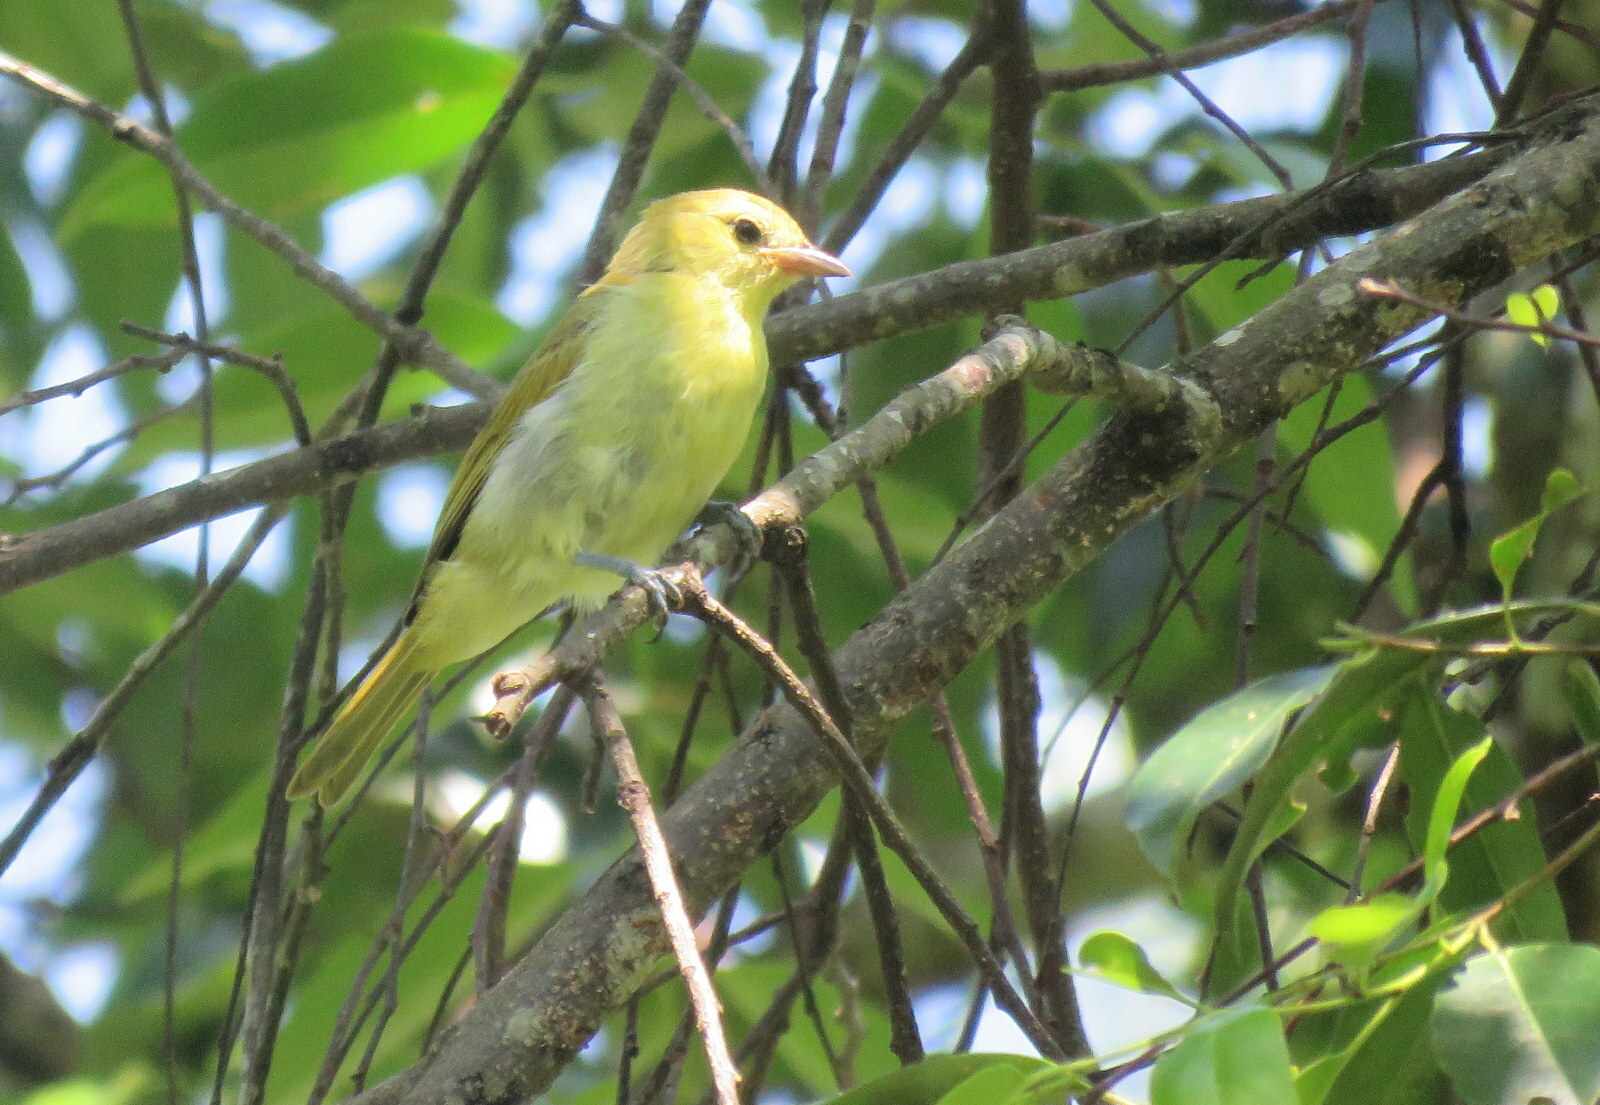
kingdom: Animalia
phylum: Chordata
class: Aves
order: Passeriformes
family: Thraupidae
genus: Hemithraupis
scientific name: Hemithraupis guira
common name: Guira tanager
